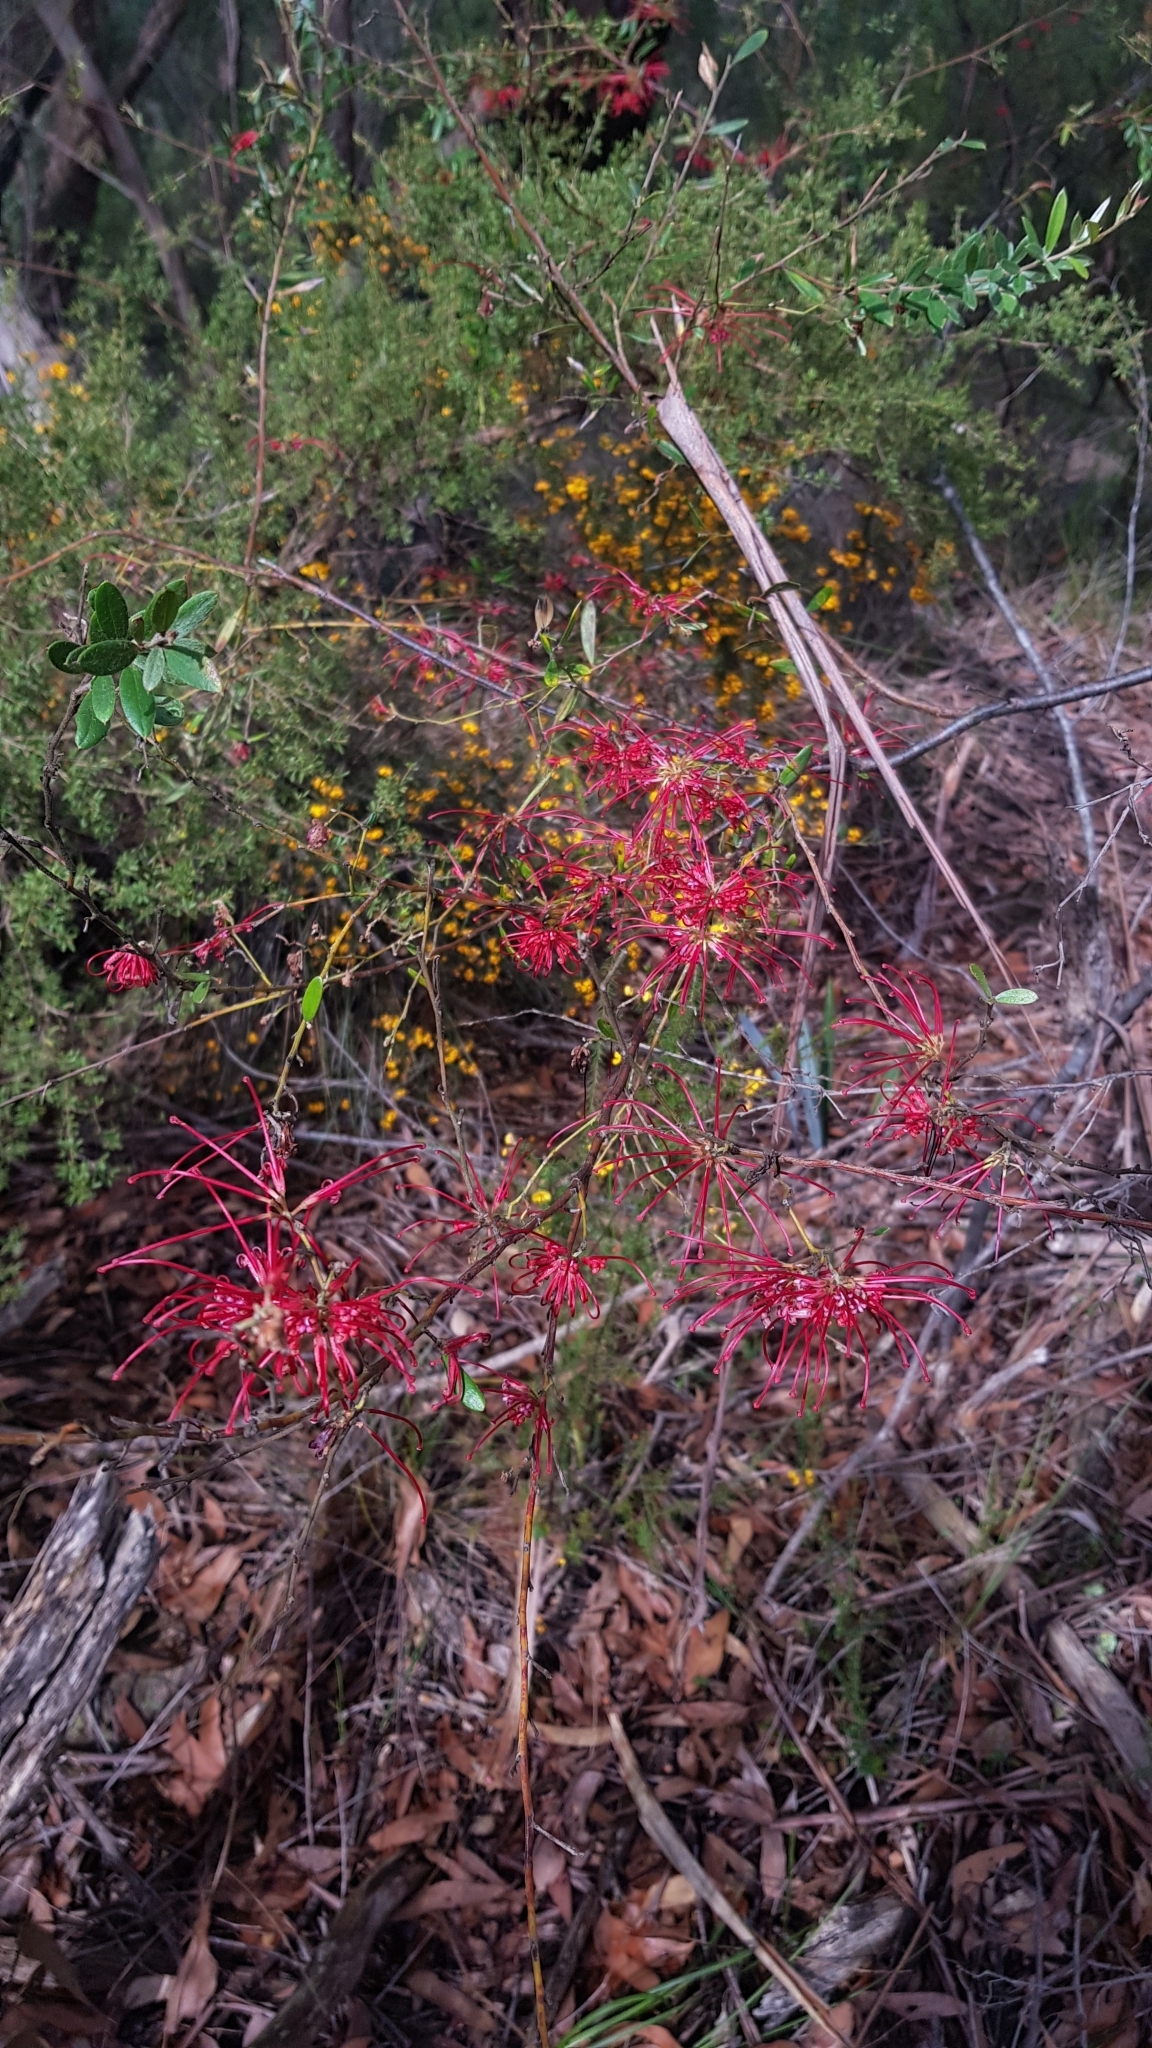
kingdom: Plantae
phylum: Tracheophyta
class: Magnoliopsida
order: Proteales
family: Proteaceae
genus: Grevillea
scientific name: Grevillea speciosa
